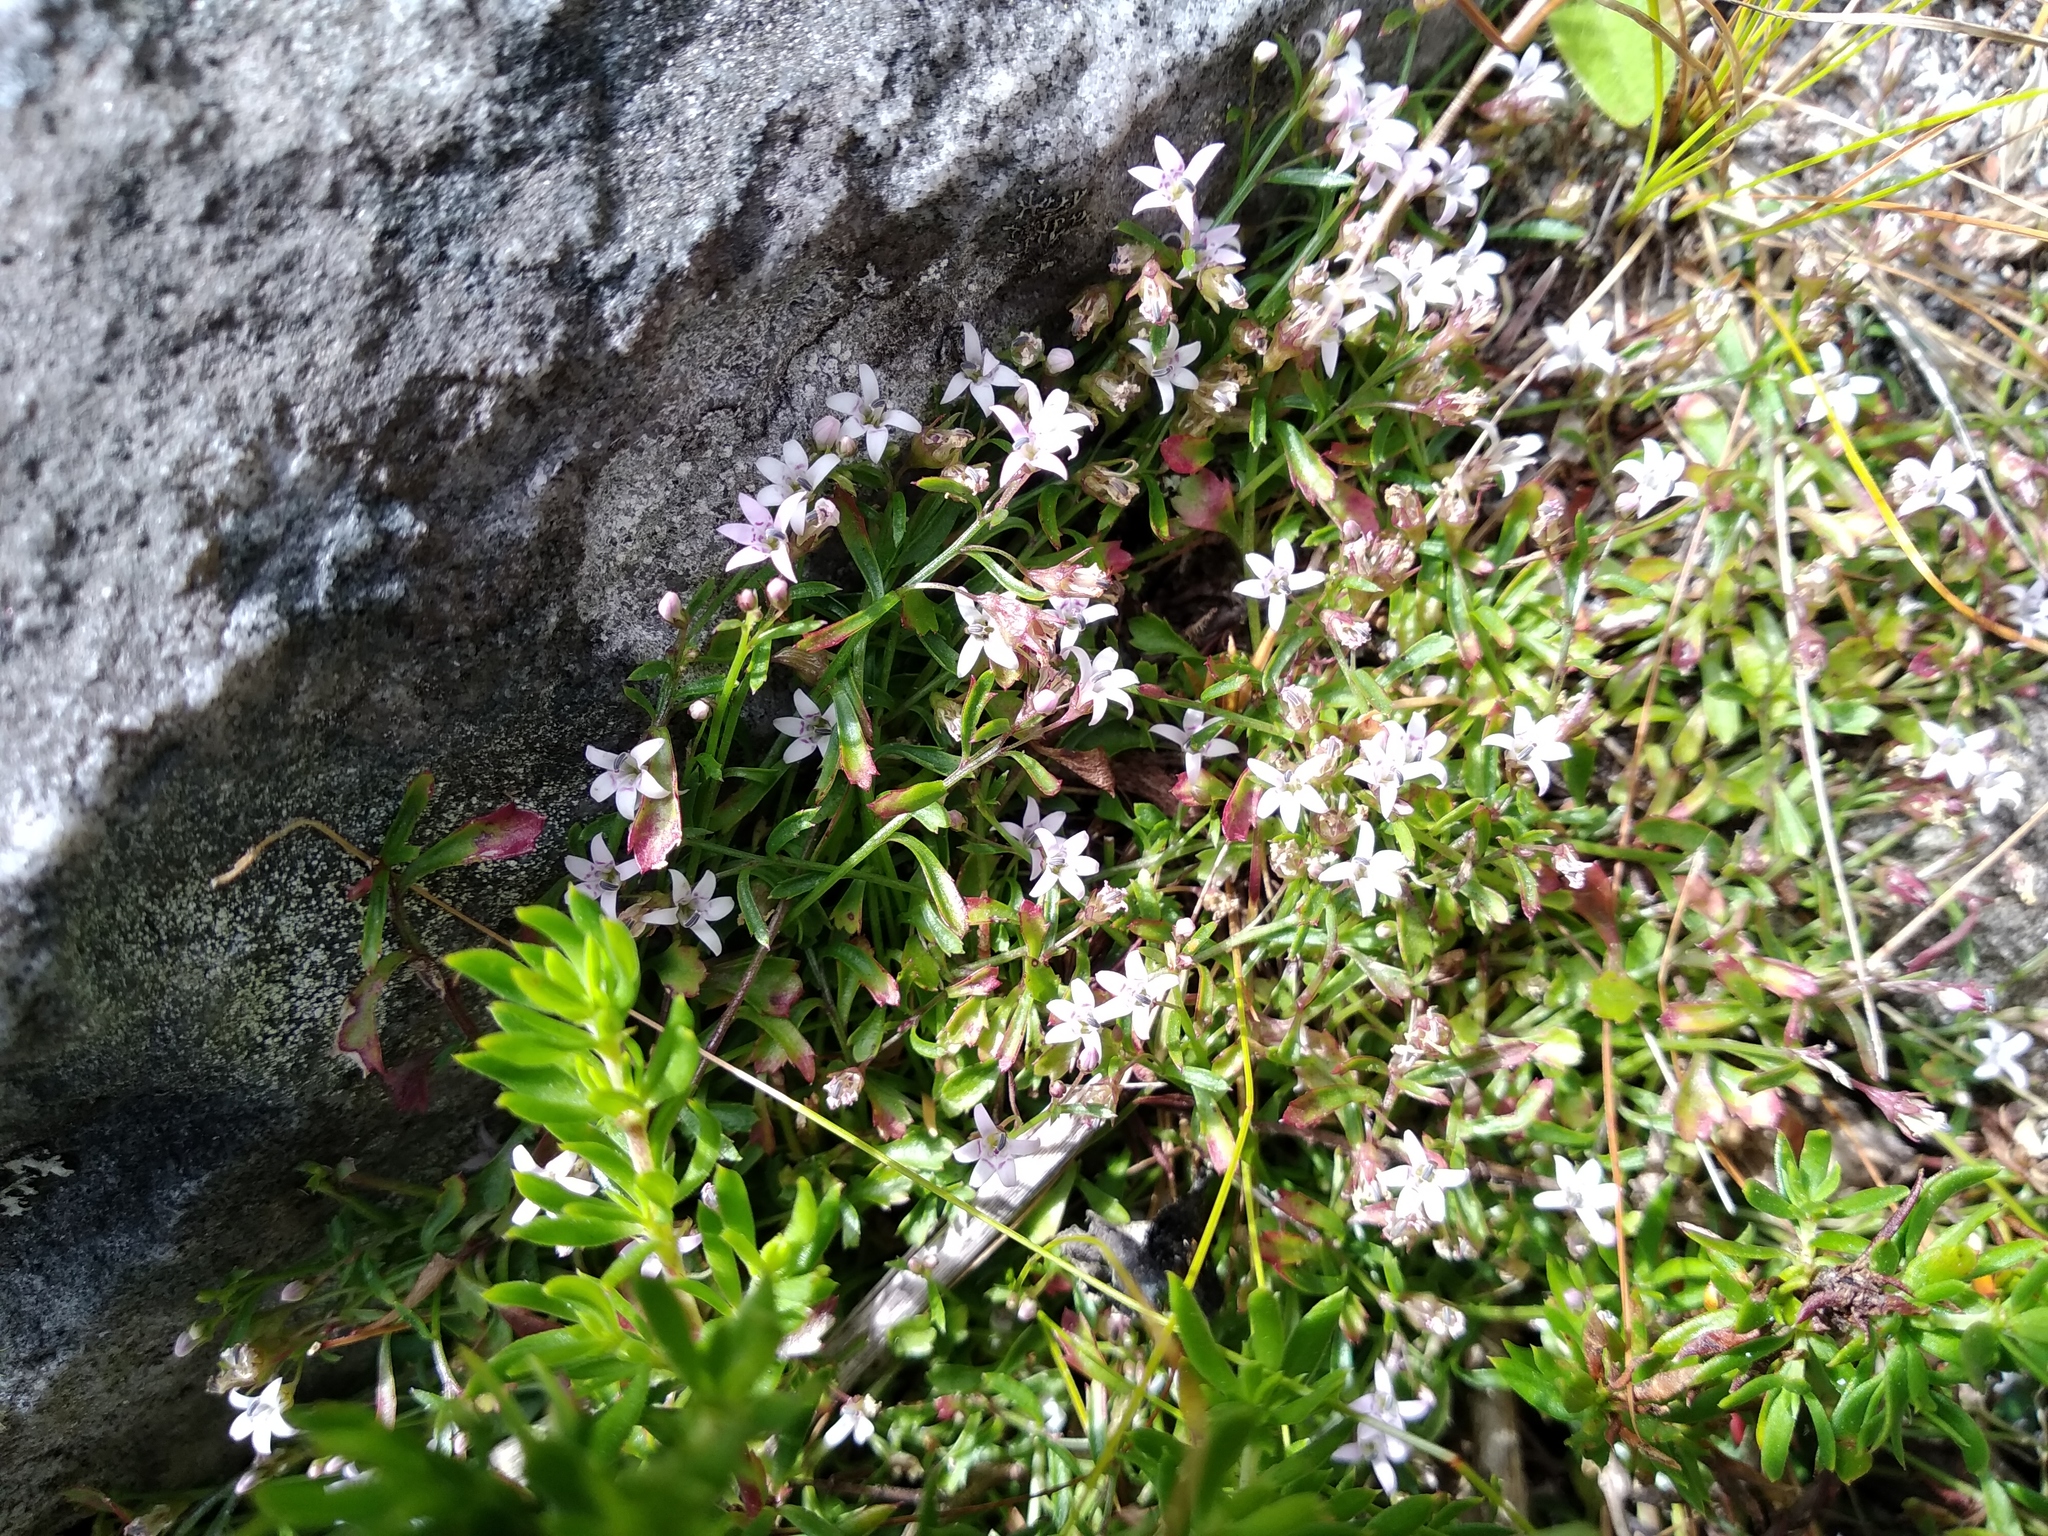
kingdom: Plantae
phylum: Tracheophyta
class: Magnoliopsida
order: Asterales
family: Campanulaceae
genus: Lobelia
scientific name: Lobelia eckloniana
